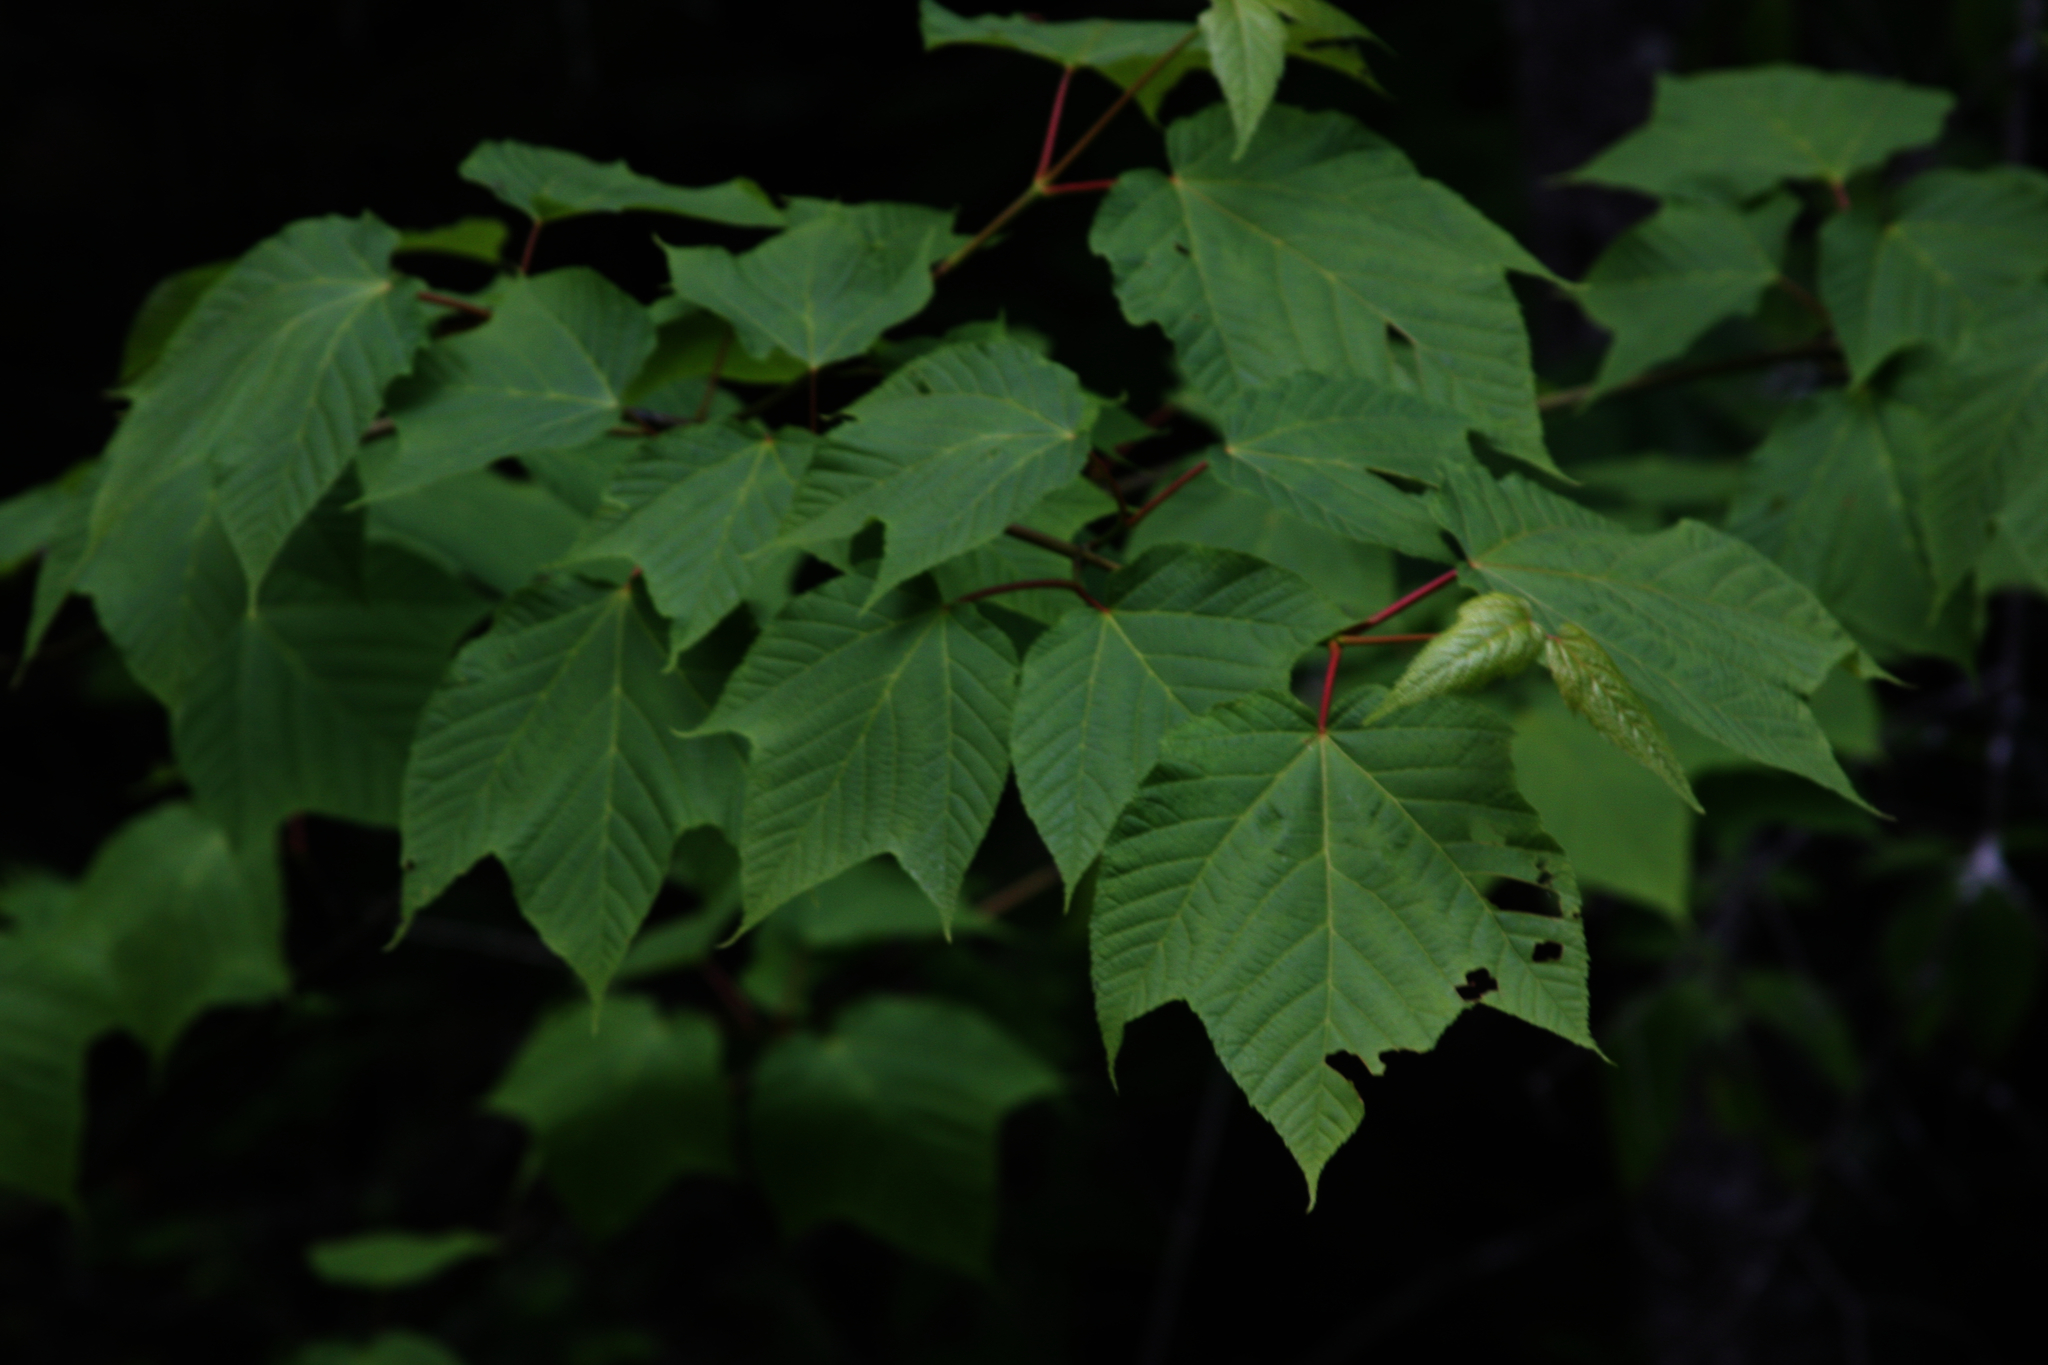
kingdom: Plantae
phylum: Tracheophyta
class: Magnoliopsida
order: Sapindales
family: Sapindaceae
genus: Acer
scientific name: Acer pensylvanicum
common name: Moosewood
